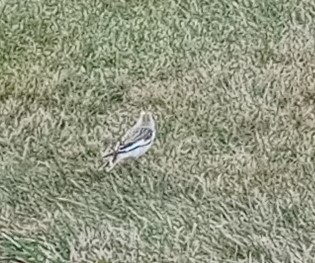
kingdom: Animalia
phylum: Chordata
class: Aves
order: Passeriformes
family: Calcariidae
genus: Plectrophenax
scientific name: Plectrophenax nivalis
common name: Snow bunting
